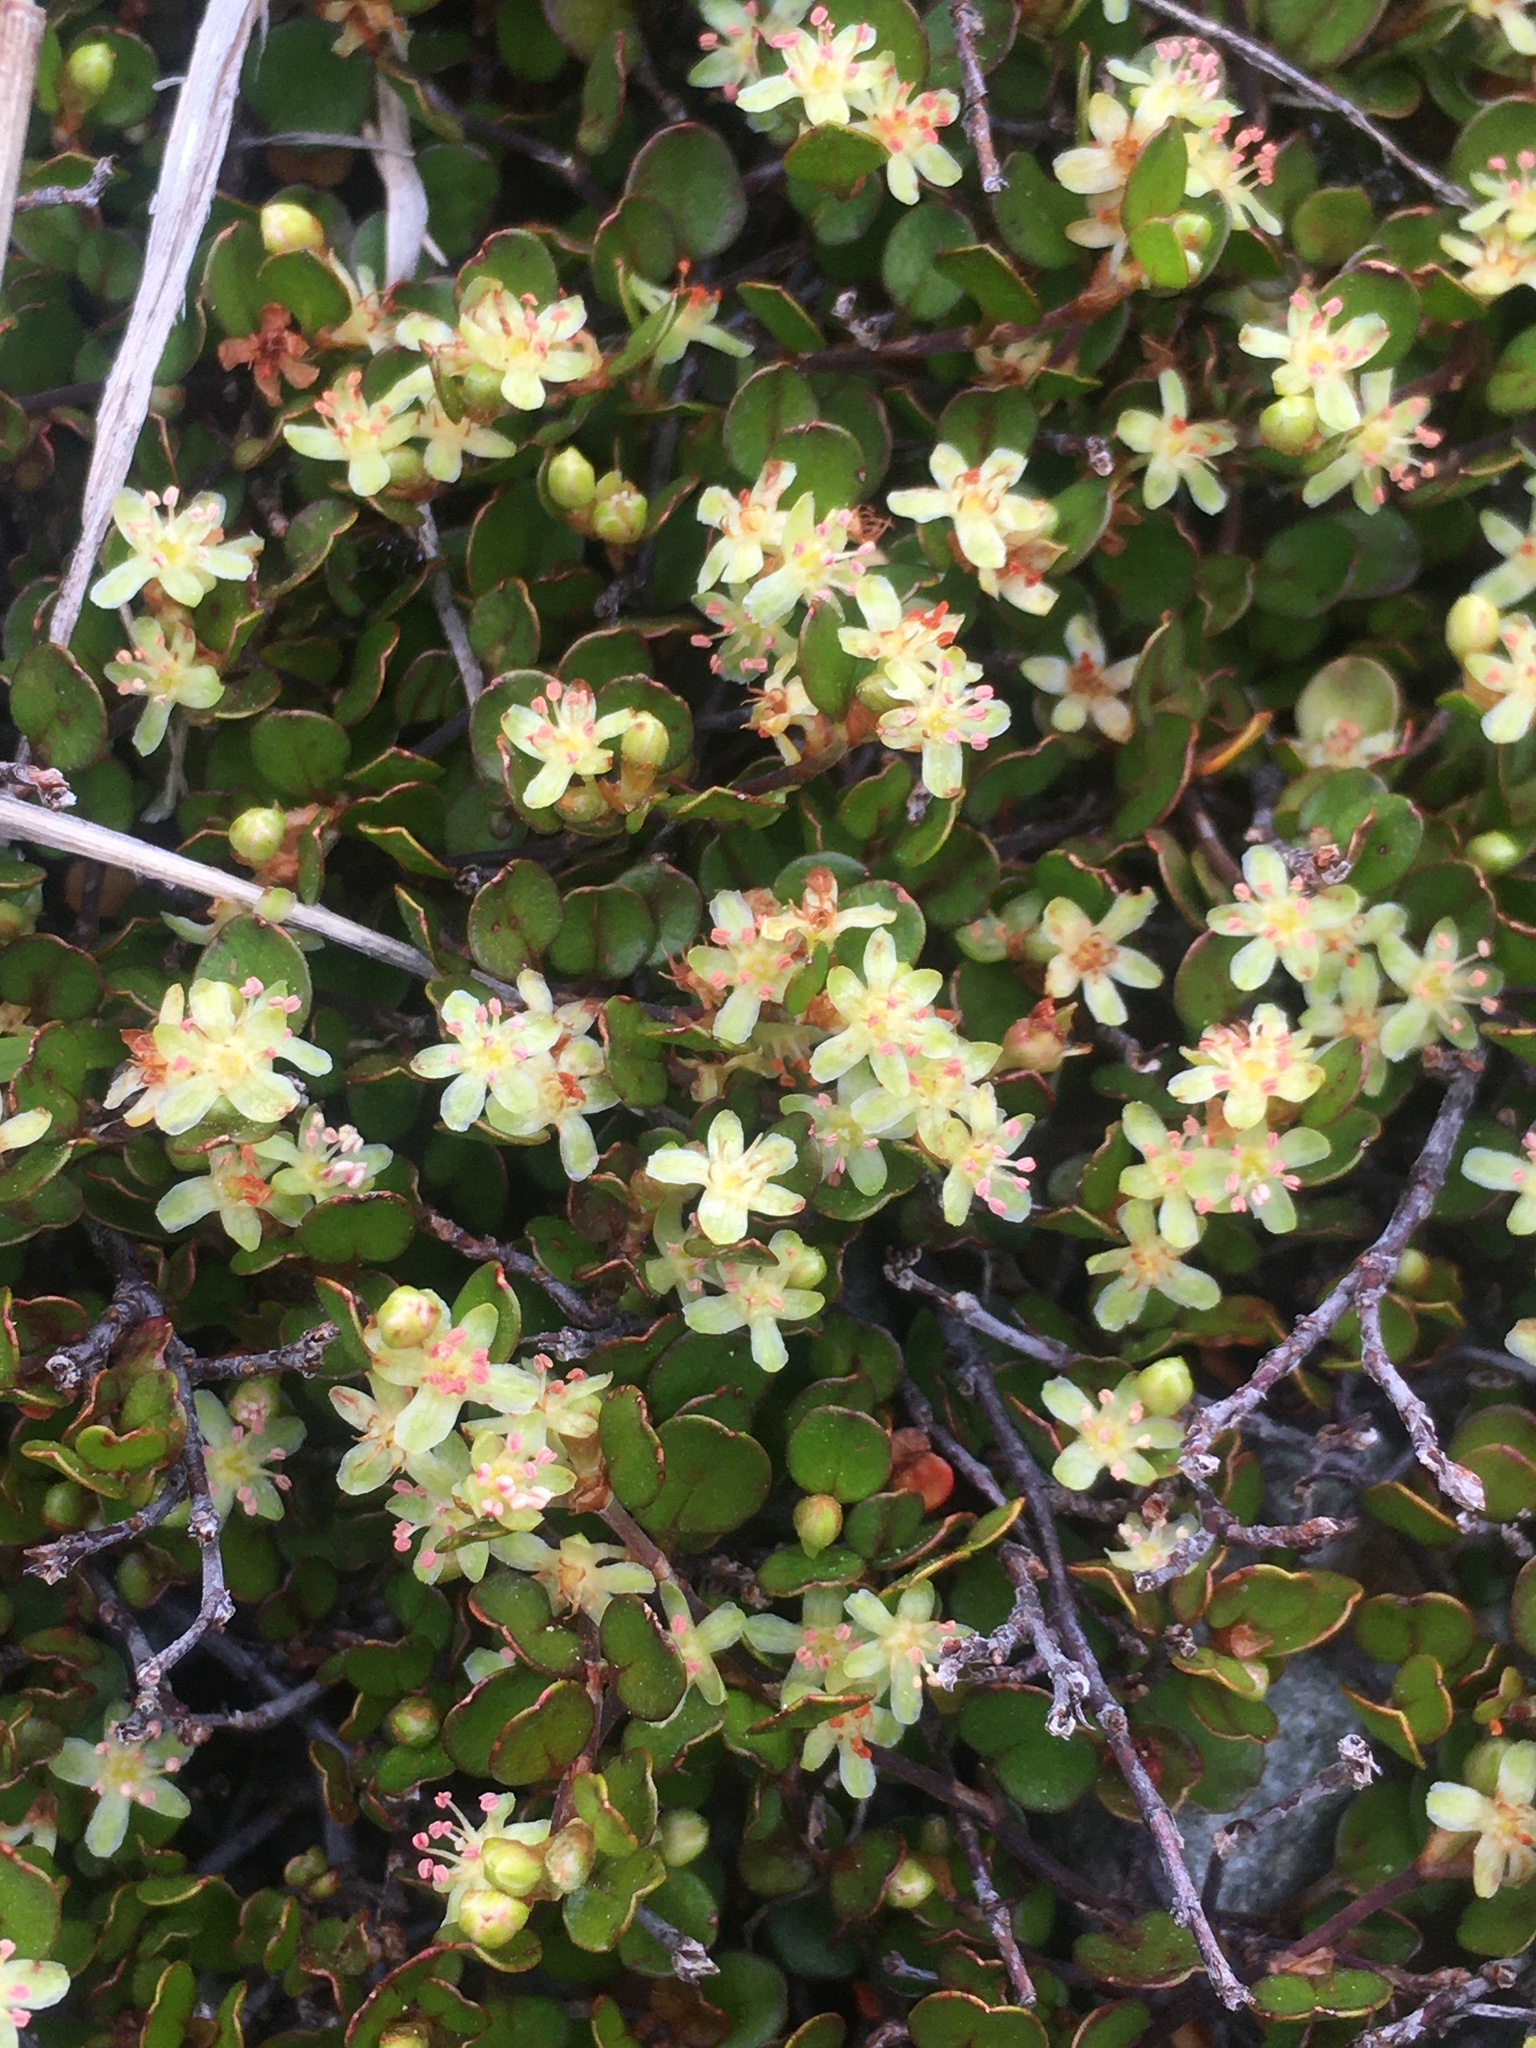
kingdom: Plantae
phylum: Tracheophyta
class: Magnoliopsida
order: Caryophyllales
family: Polygonaceae
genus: Muehlenbeckia
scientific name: Muehlenbeckia axillaris
